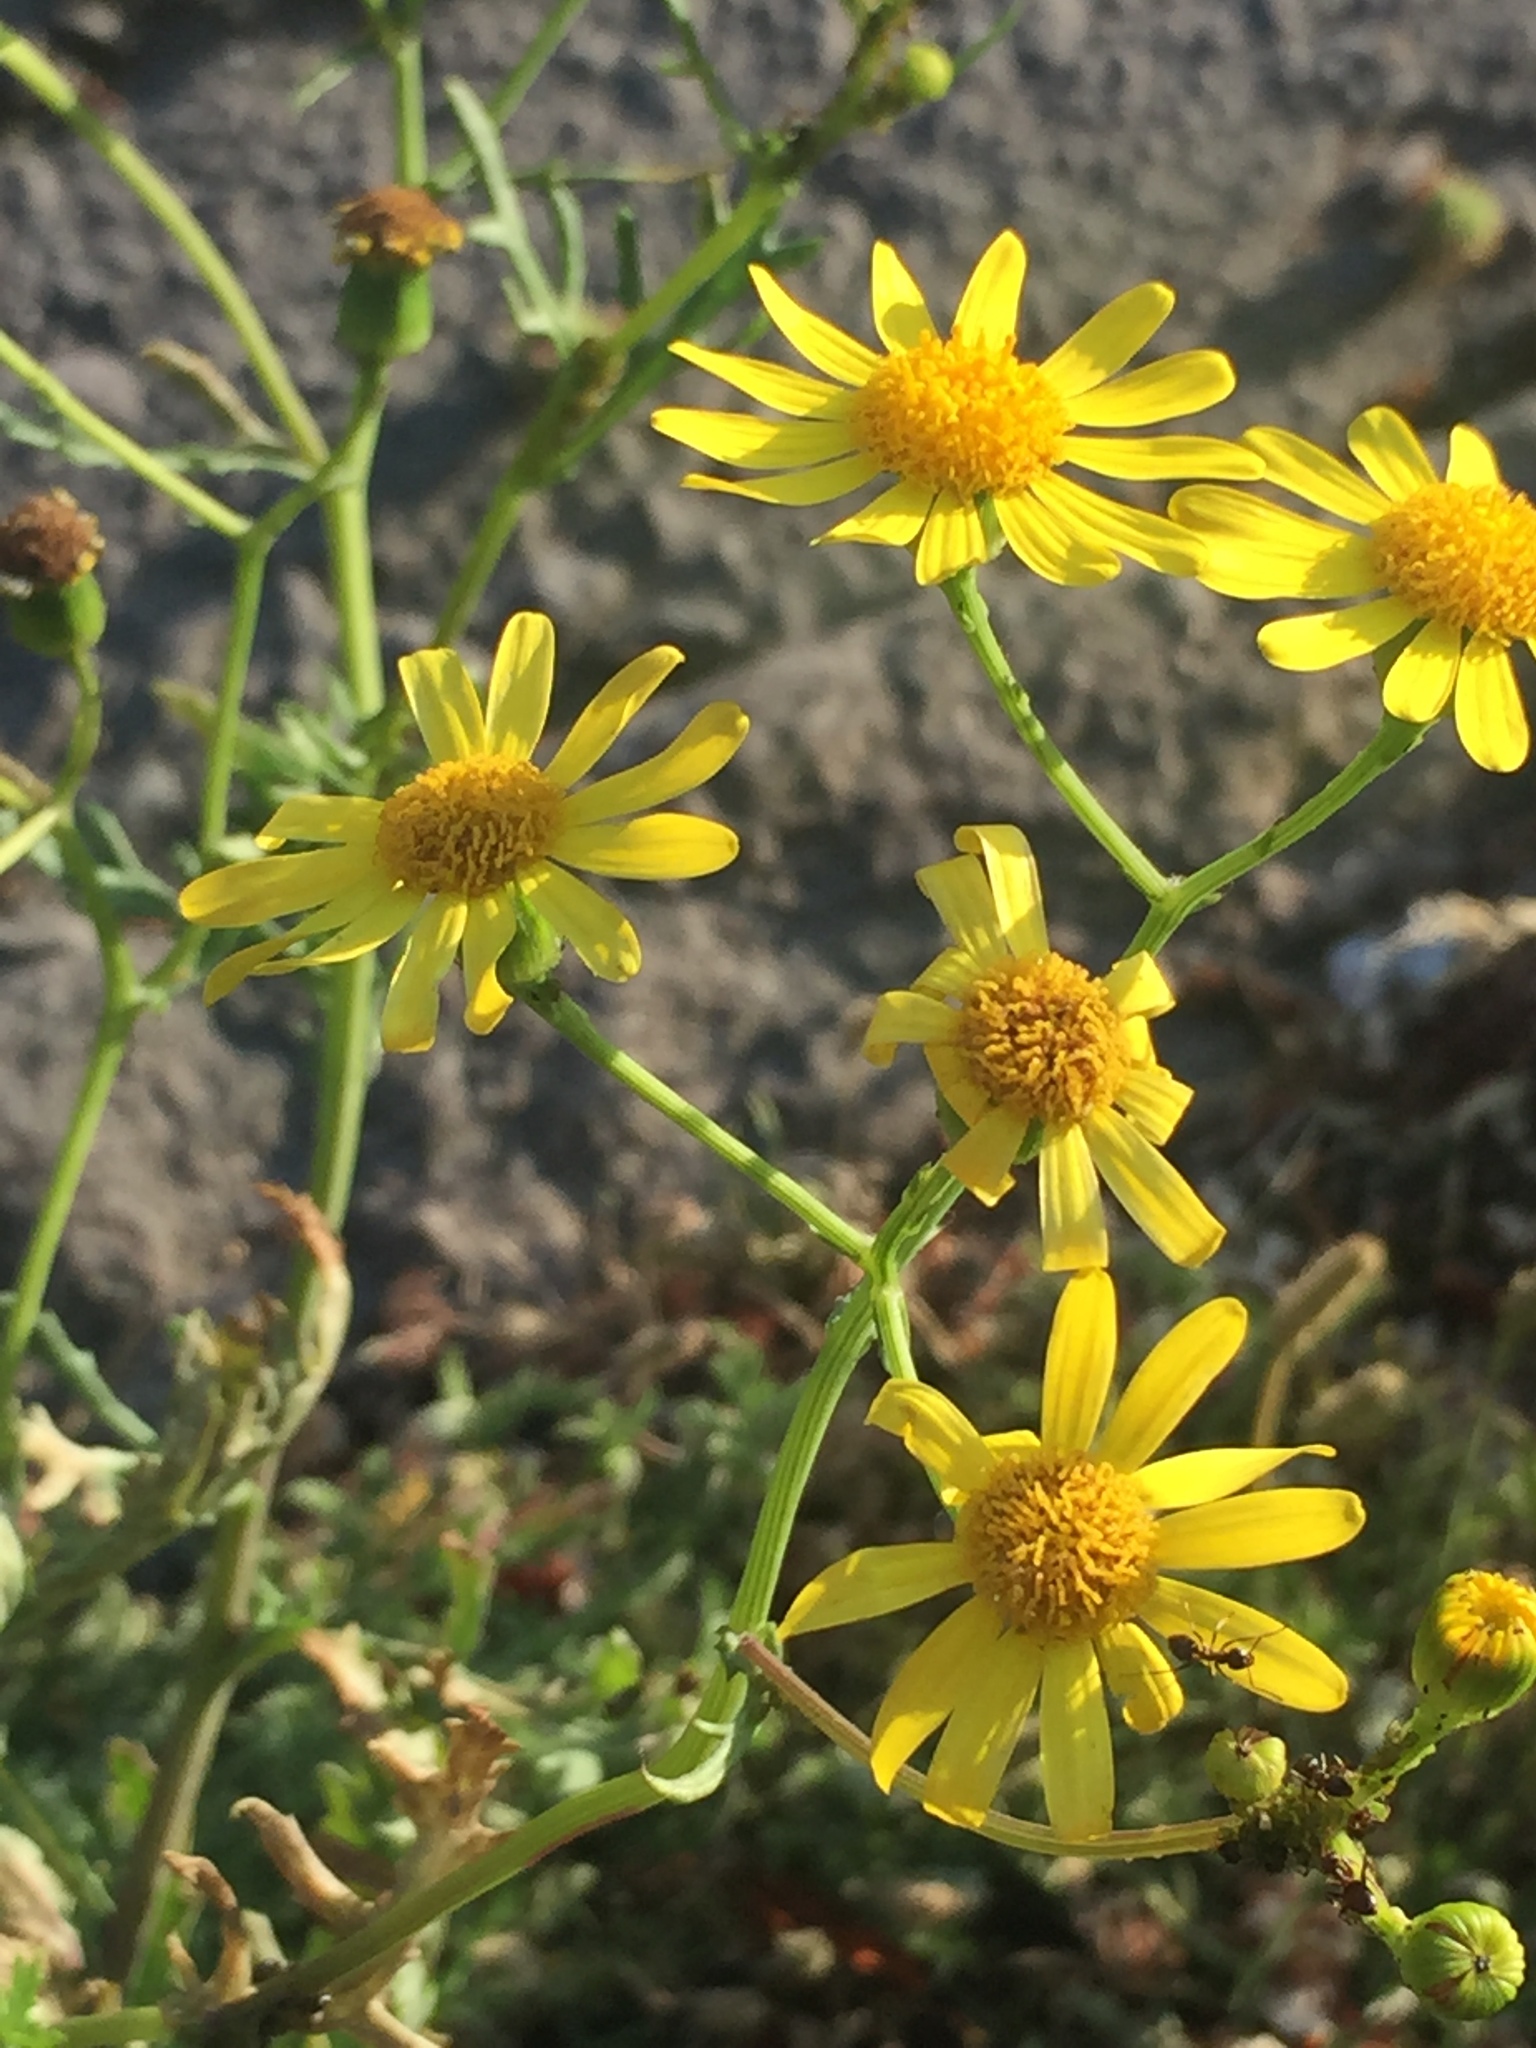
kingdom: Plantae
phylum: Tracheophyta
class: Magnoliopsida
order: Asterales
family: Asteraceae
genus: Senecio
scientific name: Senecio squalidus
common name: Oxford ragwort
